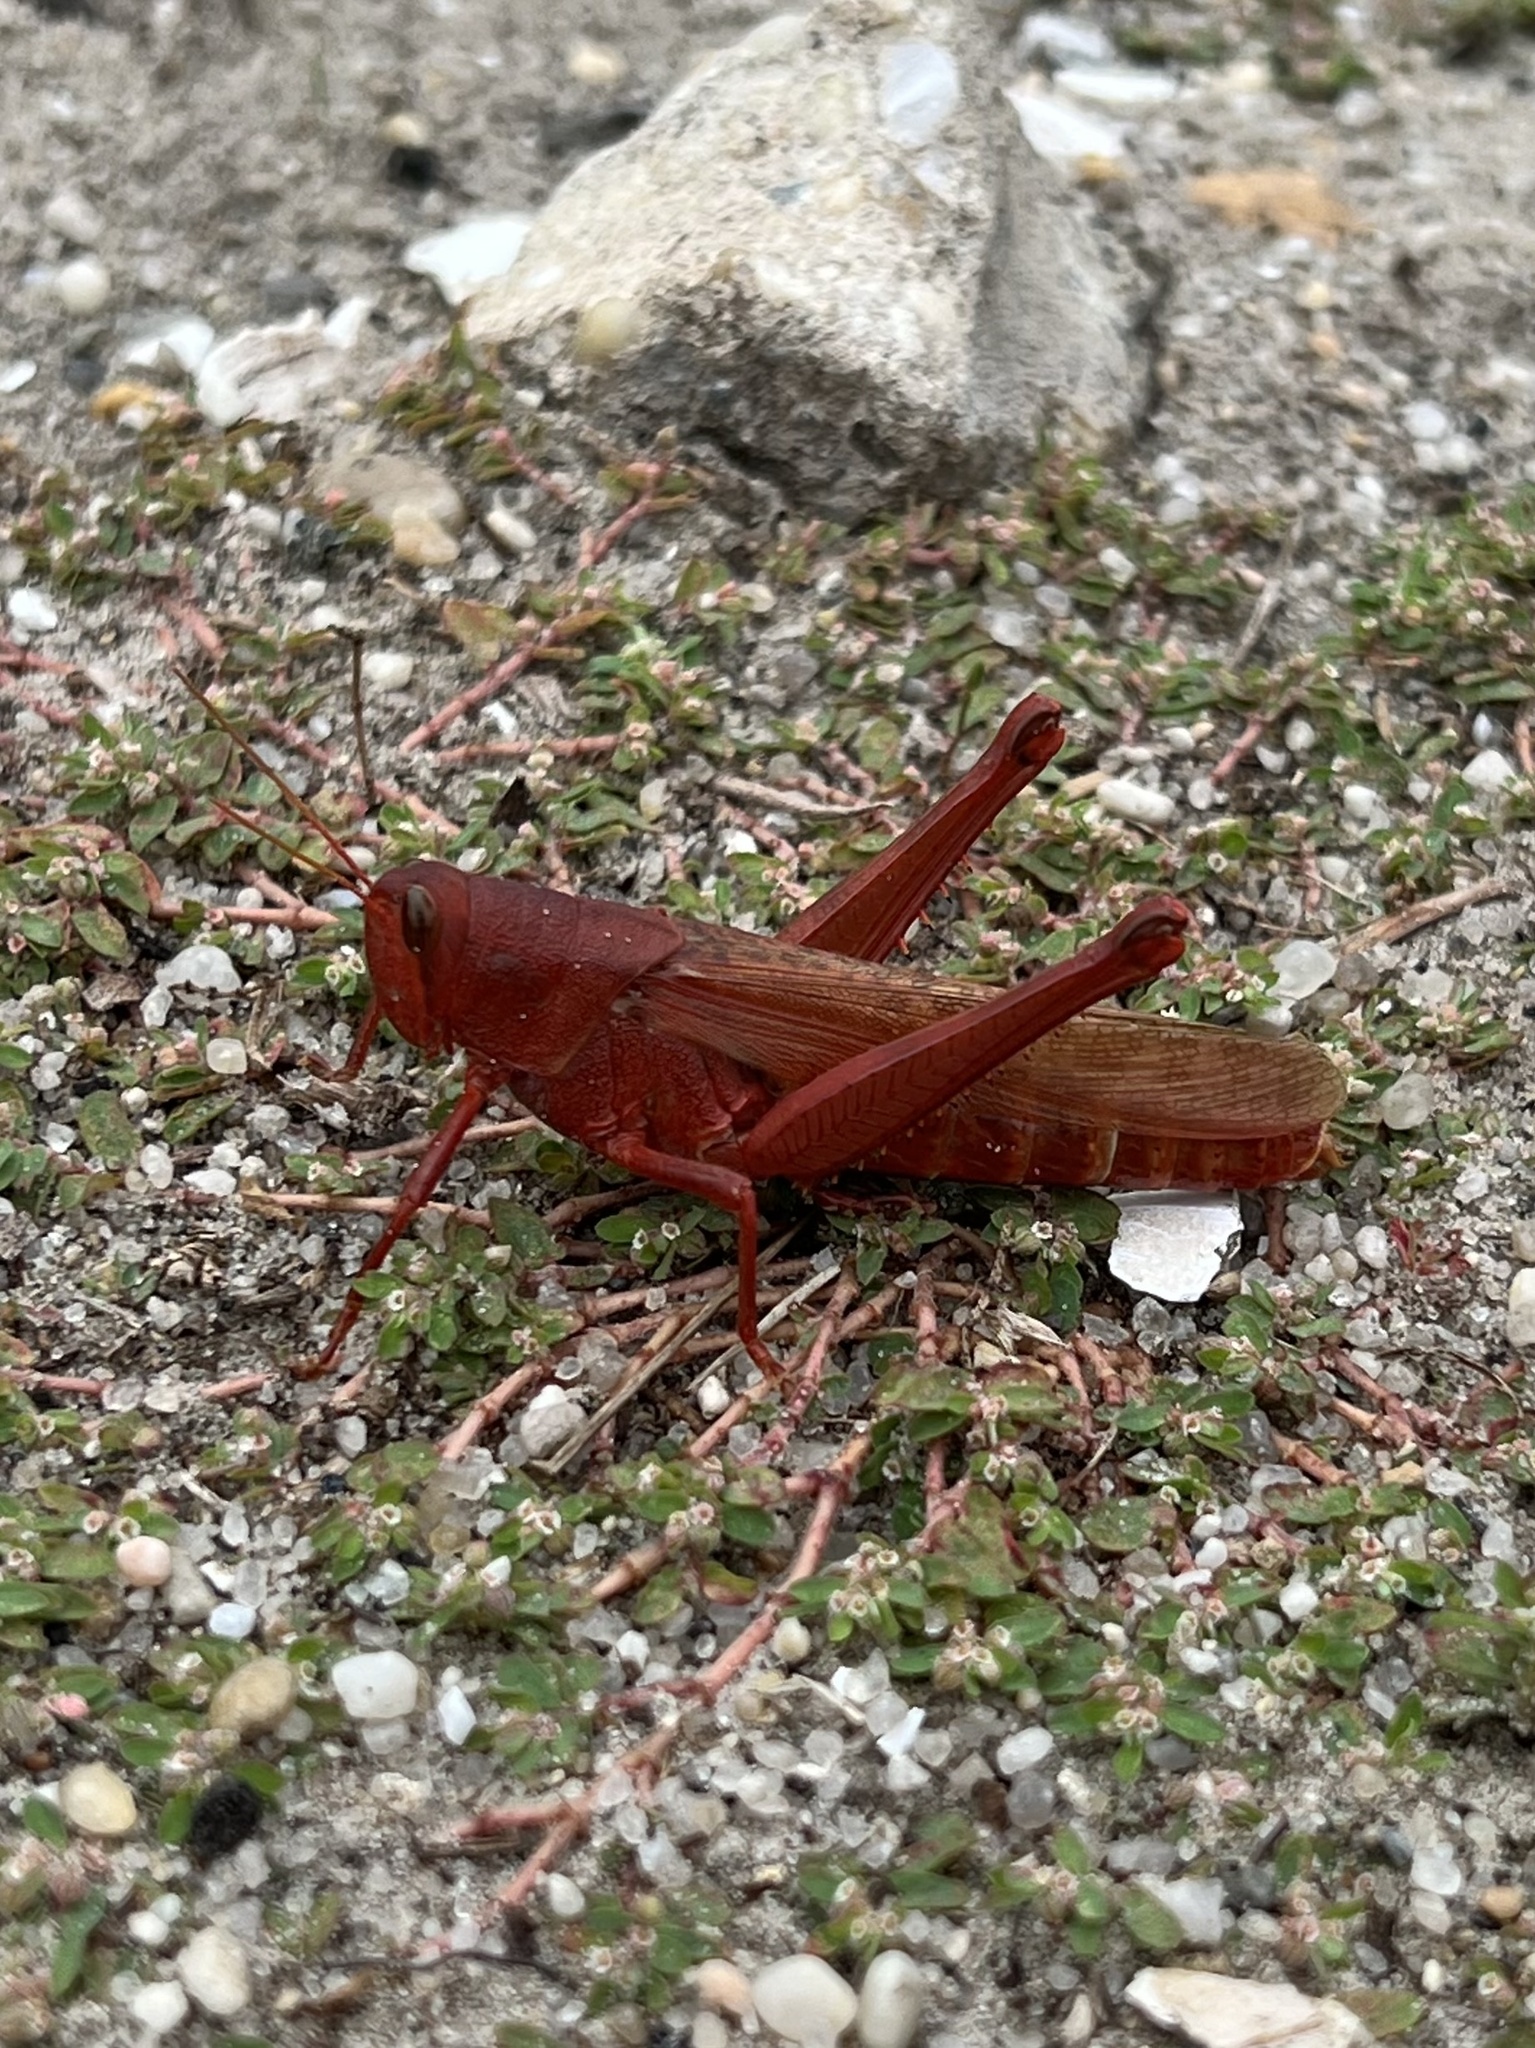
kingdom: Animalia
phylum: Arthropoda
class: Insecta
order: Orthoptera
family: Acrididae
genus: Schistocerca
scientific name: Schistocerca lineata
